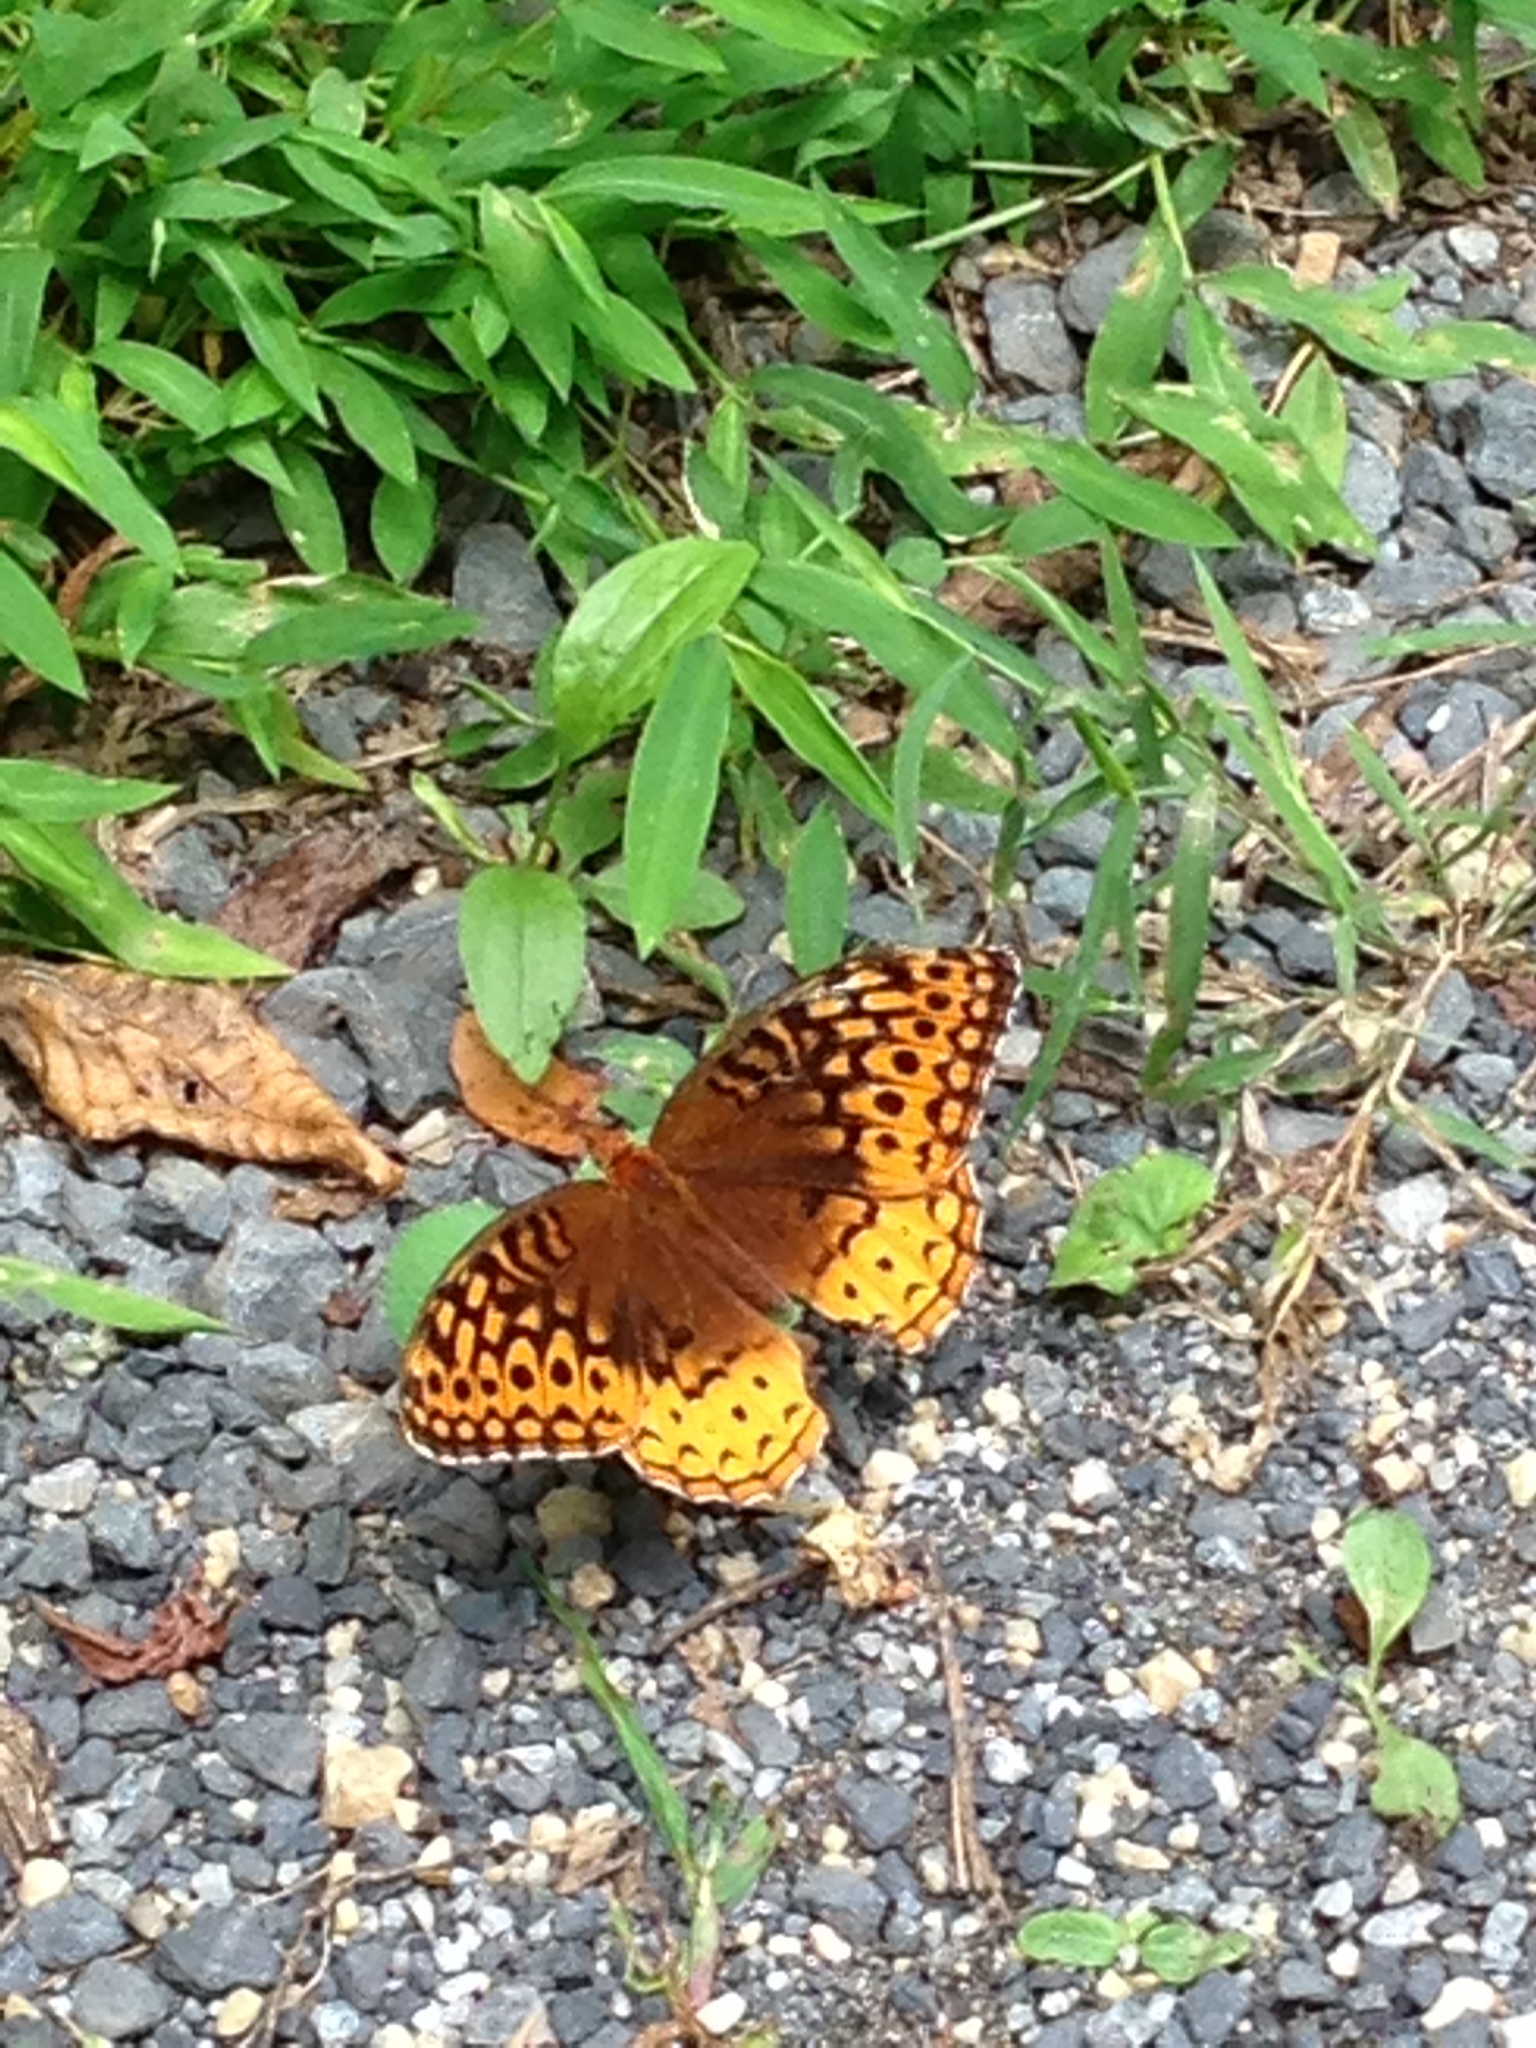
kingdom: Animalia
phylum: Arthropoda
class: Insecta
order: Lepidoptera
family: Nymphalidae
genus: Speyeria
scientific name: Speyeria cybele
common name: Great spangled fritillary
